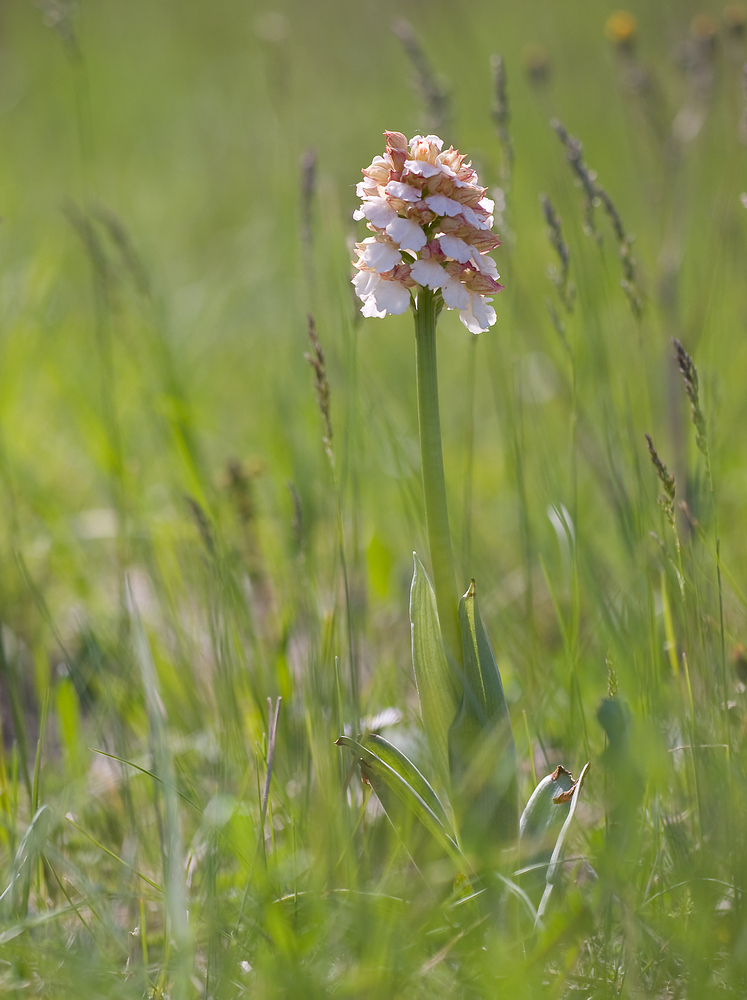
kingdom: Plantae
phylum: Tracheophyta
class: Liliopsida
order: Asparagales
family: Orchidaceae
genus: Orchis
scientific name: Orchis purpurea
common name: Lady orchid
